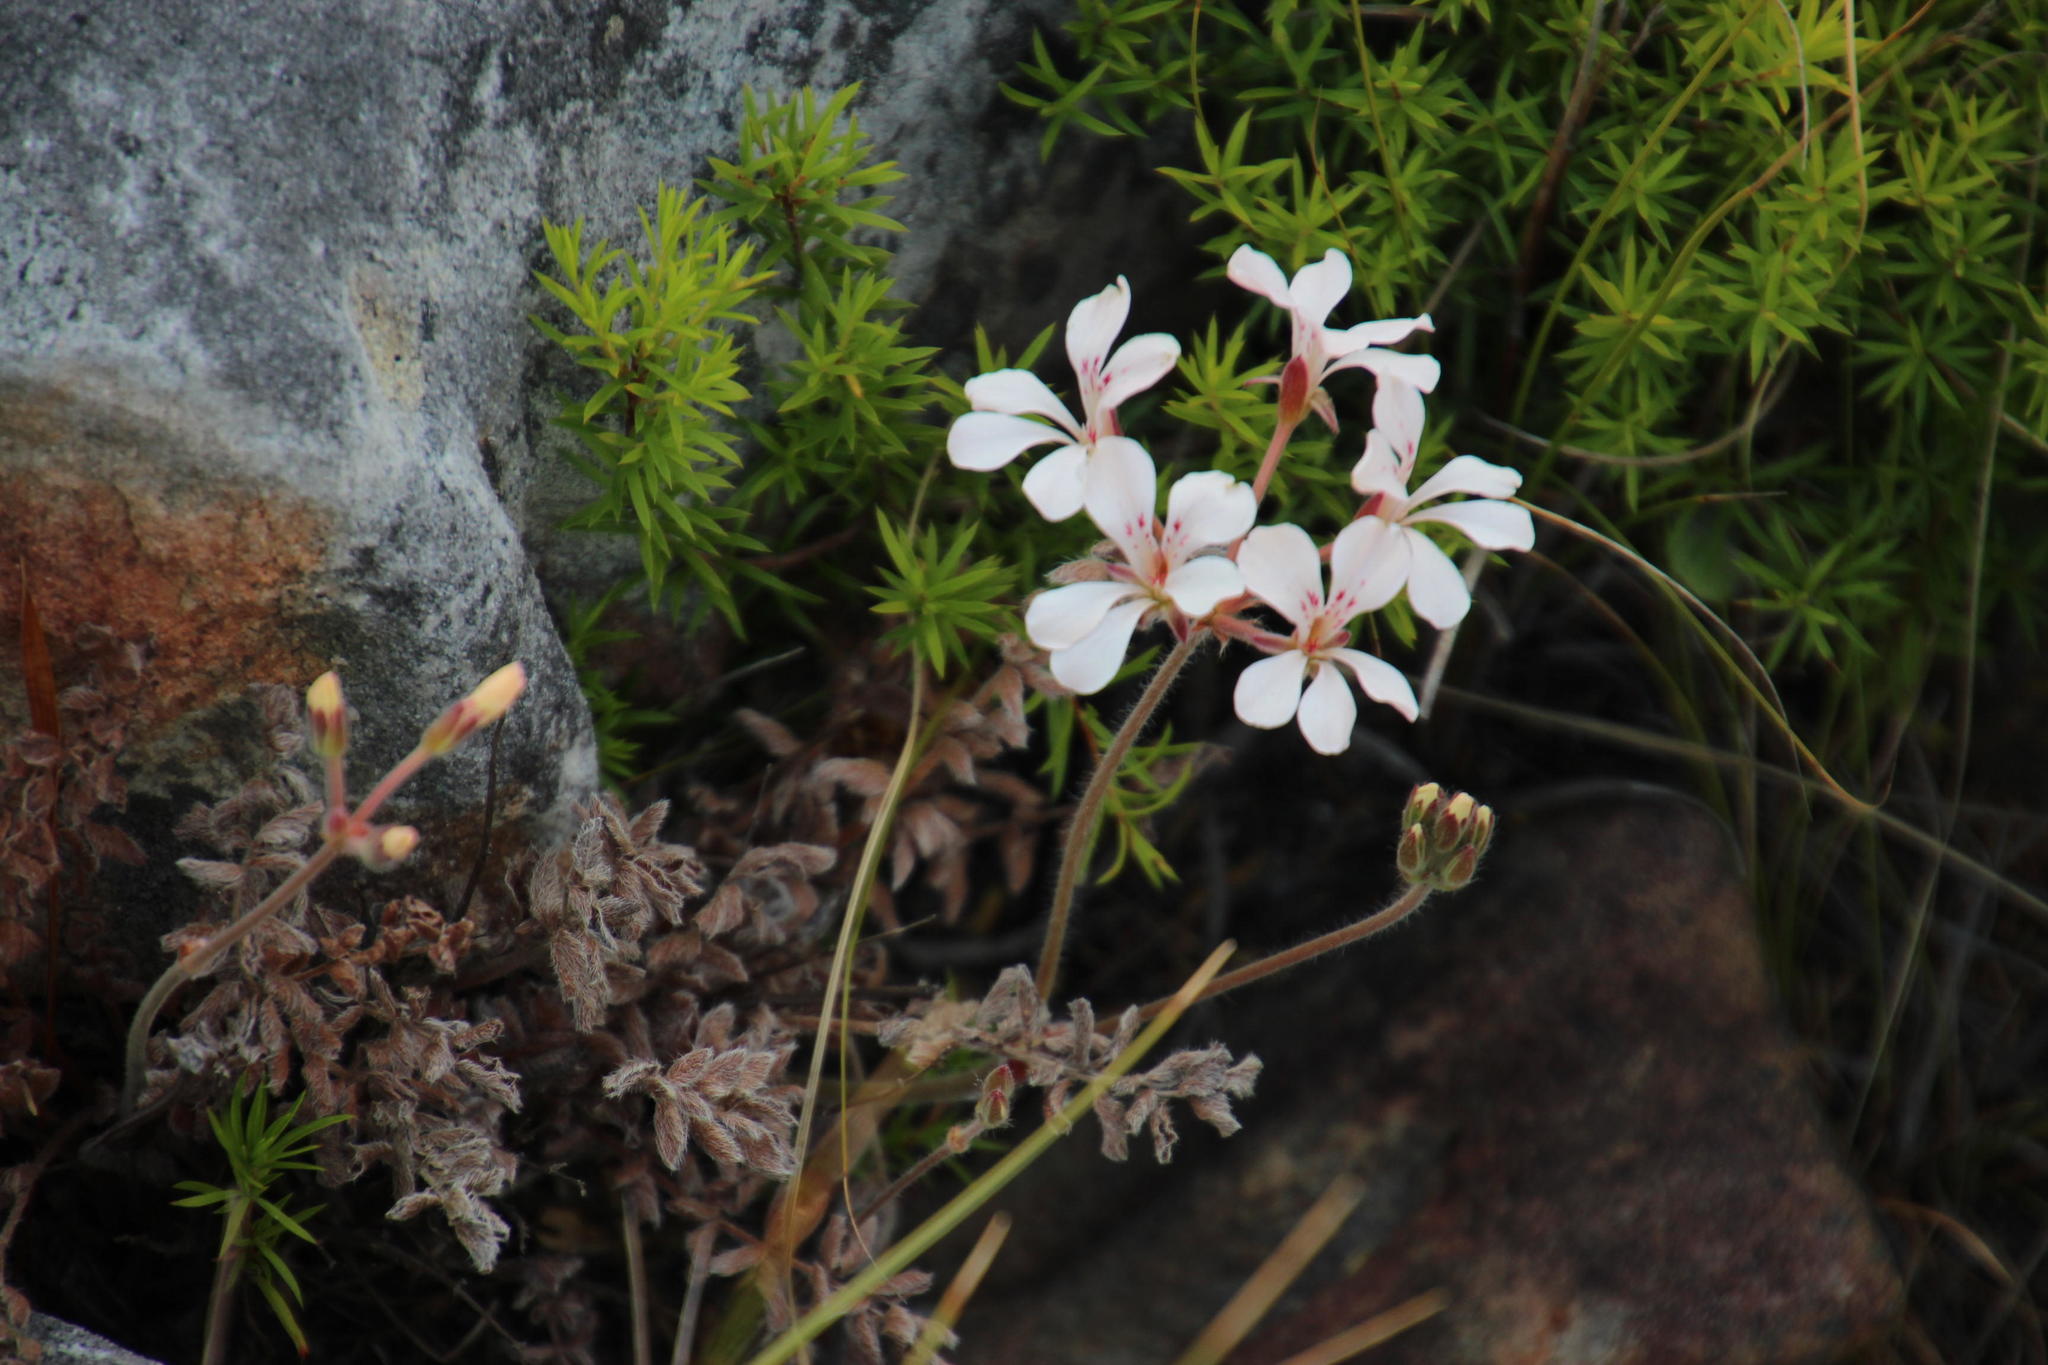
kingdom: Plantae
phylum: Tracheophyta
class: Magnoliopsida
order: Geraniales
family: Geraniaceae
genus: Pelargonium
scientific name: Pelargonium pinnatum
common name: Pinnated pelargonium
